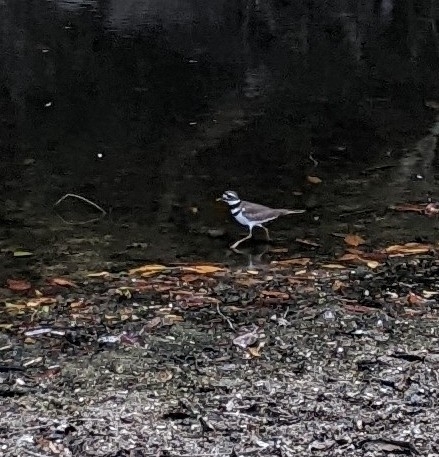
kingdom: Animalia
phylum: Chordata
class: Aves
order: Charadriiformes
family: Charadriidae
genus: Charadrius
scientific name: Charadrius vociferus
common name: Killdeer
